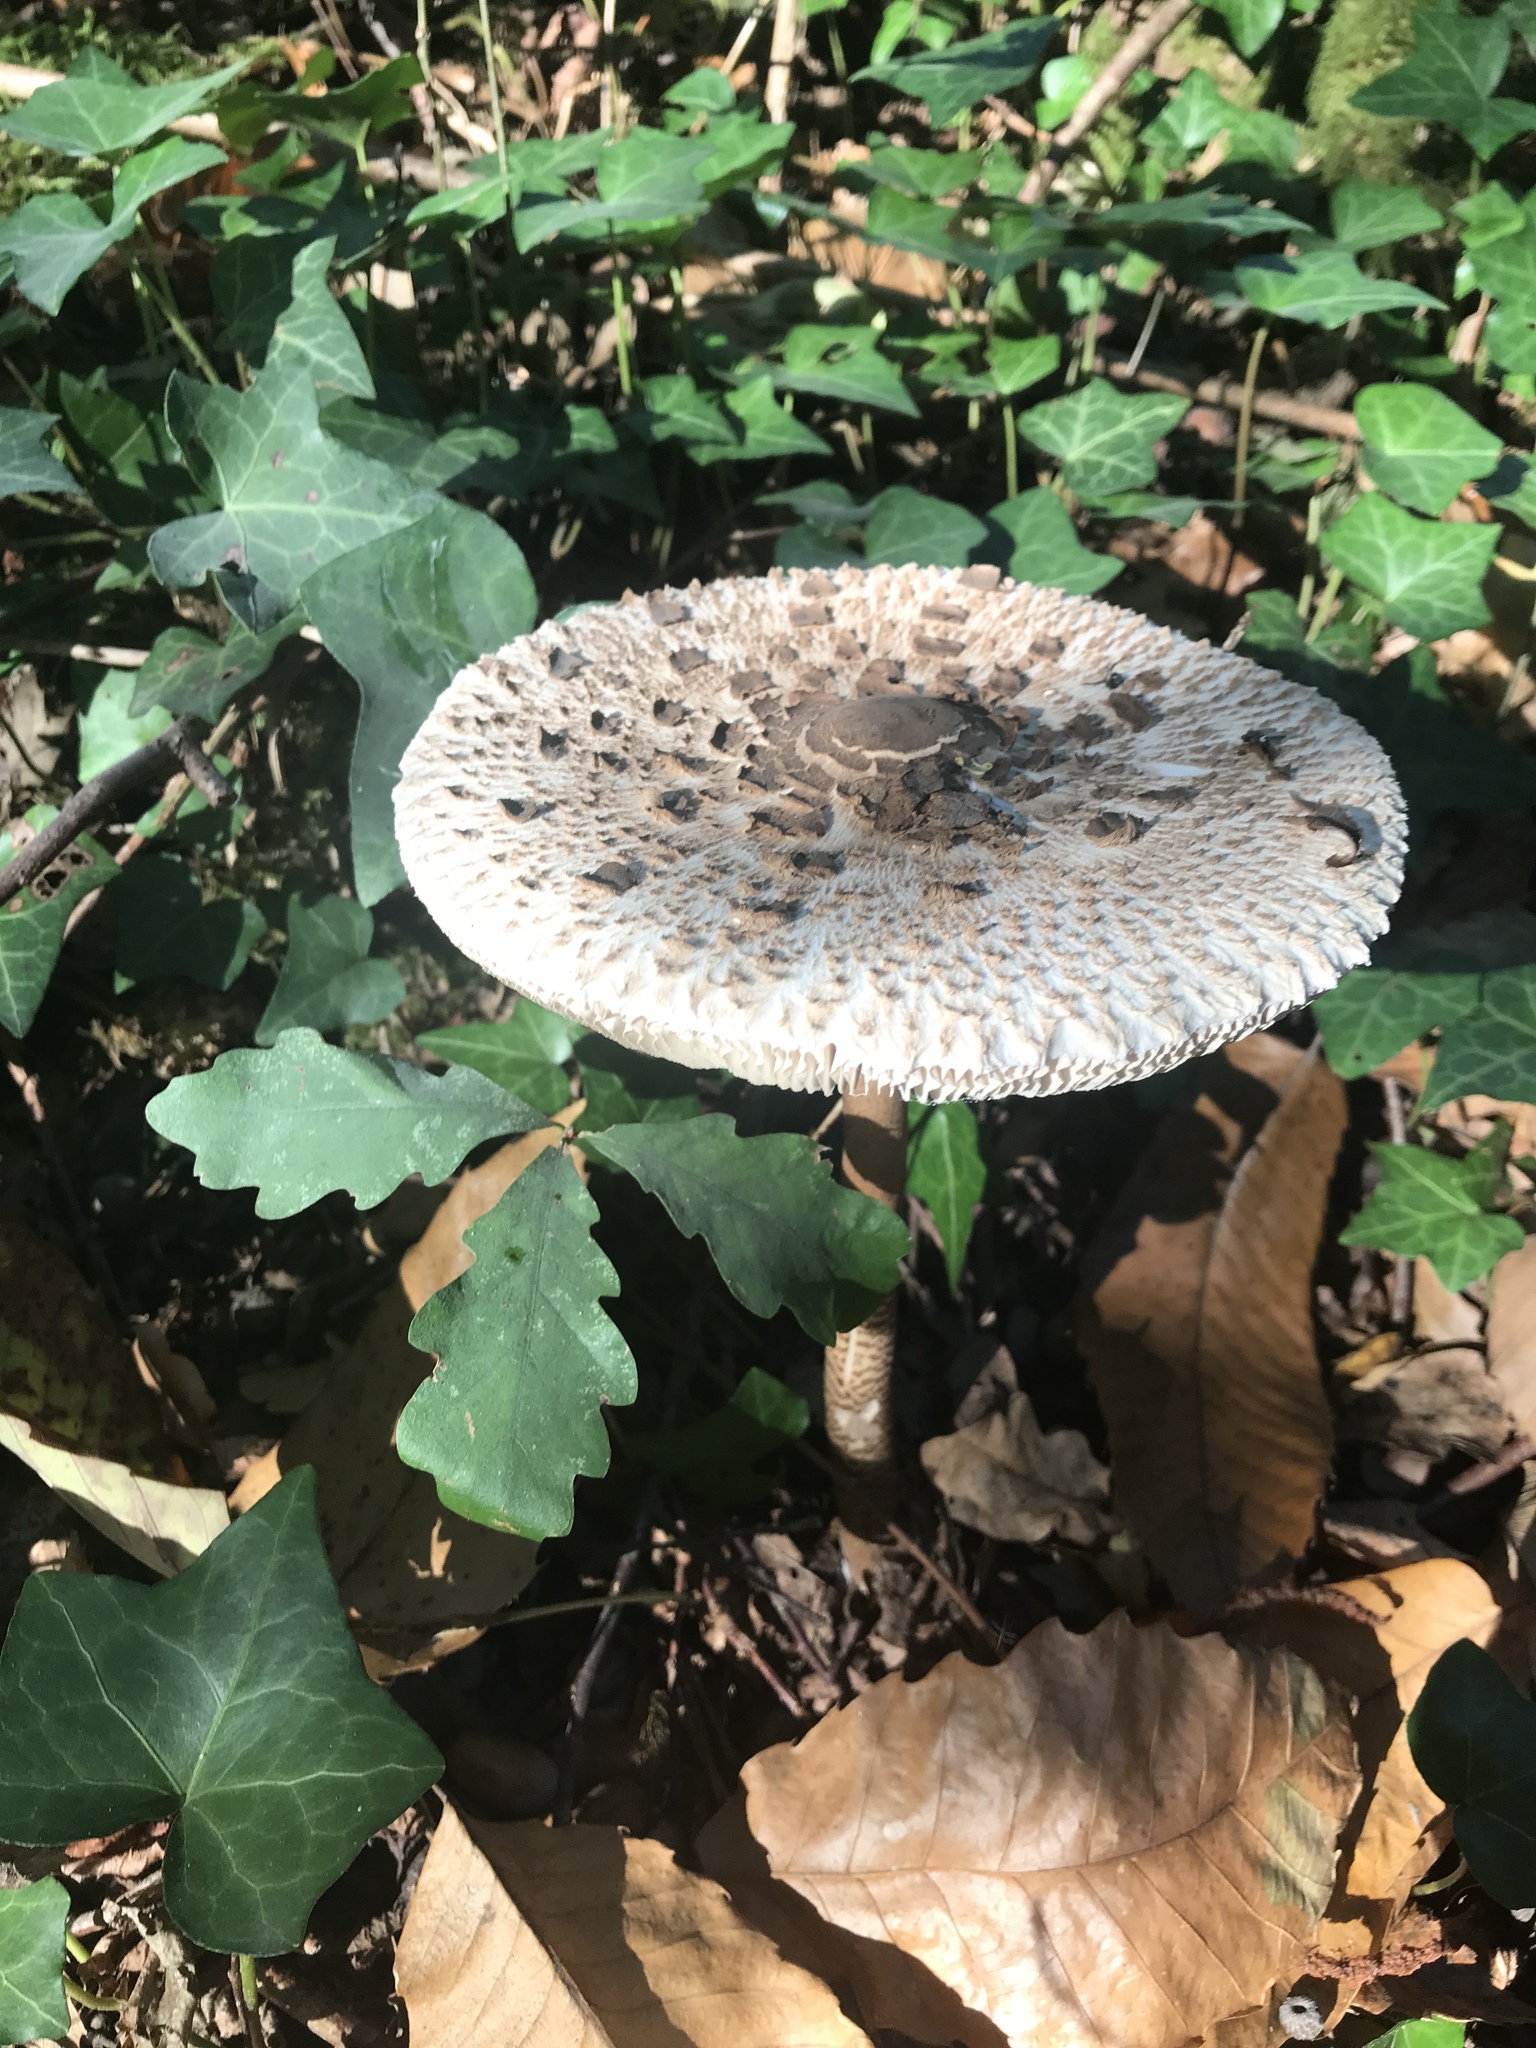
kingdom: Fungi
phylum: Basidiomycota
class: Agaricomycetes
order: Agaricales
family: Agaricaceae
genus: Macrolepiota
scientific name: Macrolepiota procera
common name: Parasol
